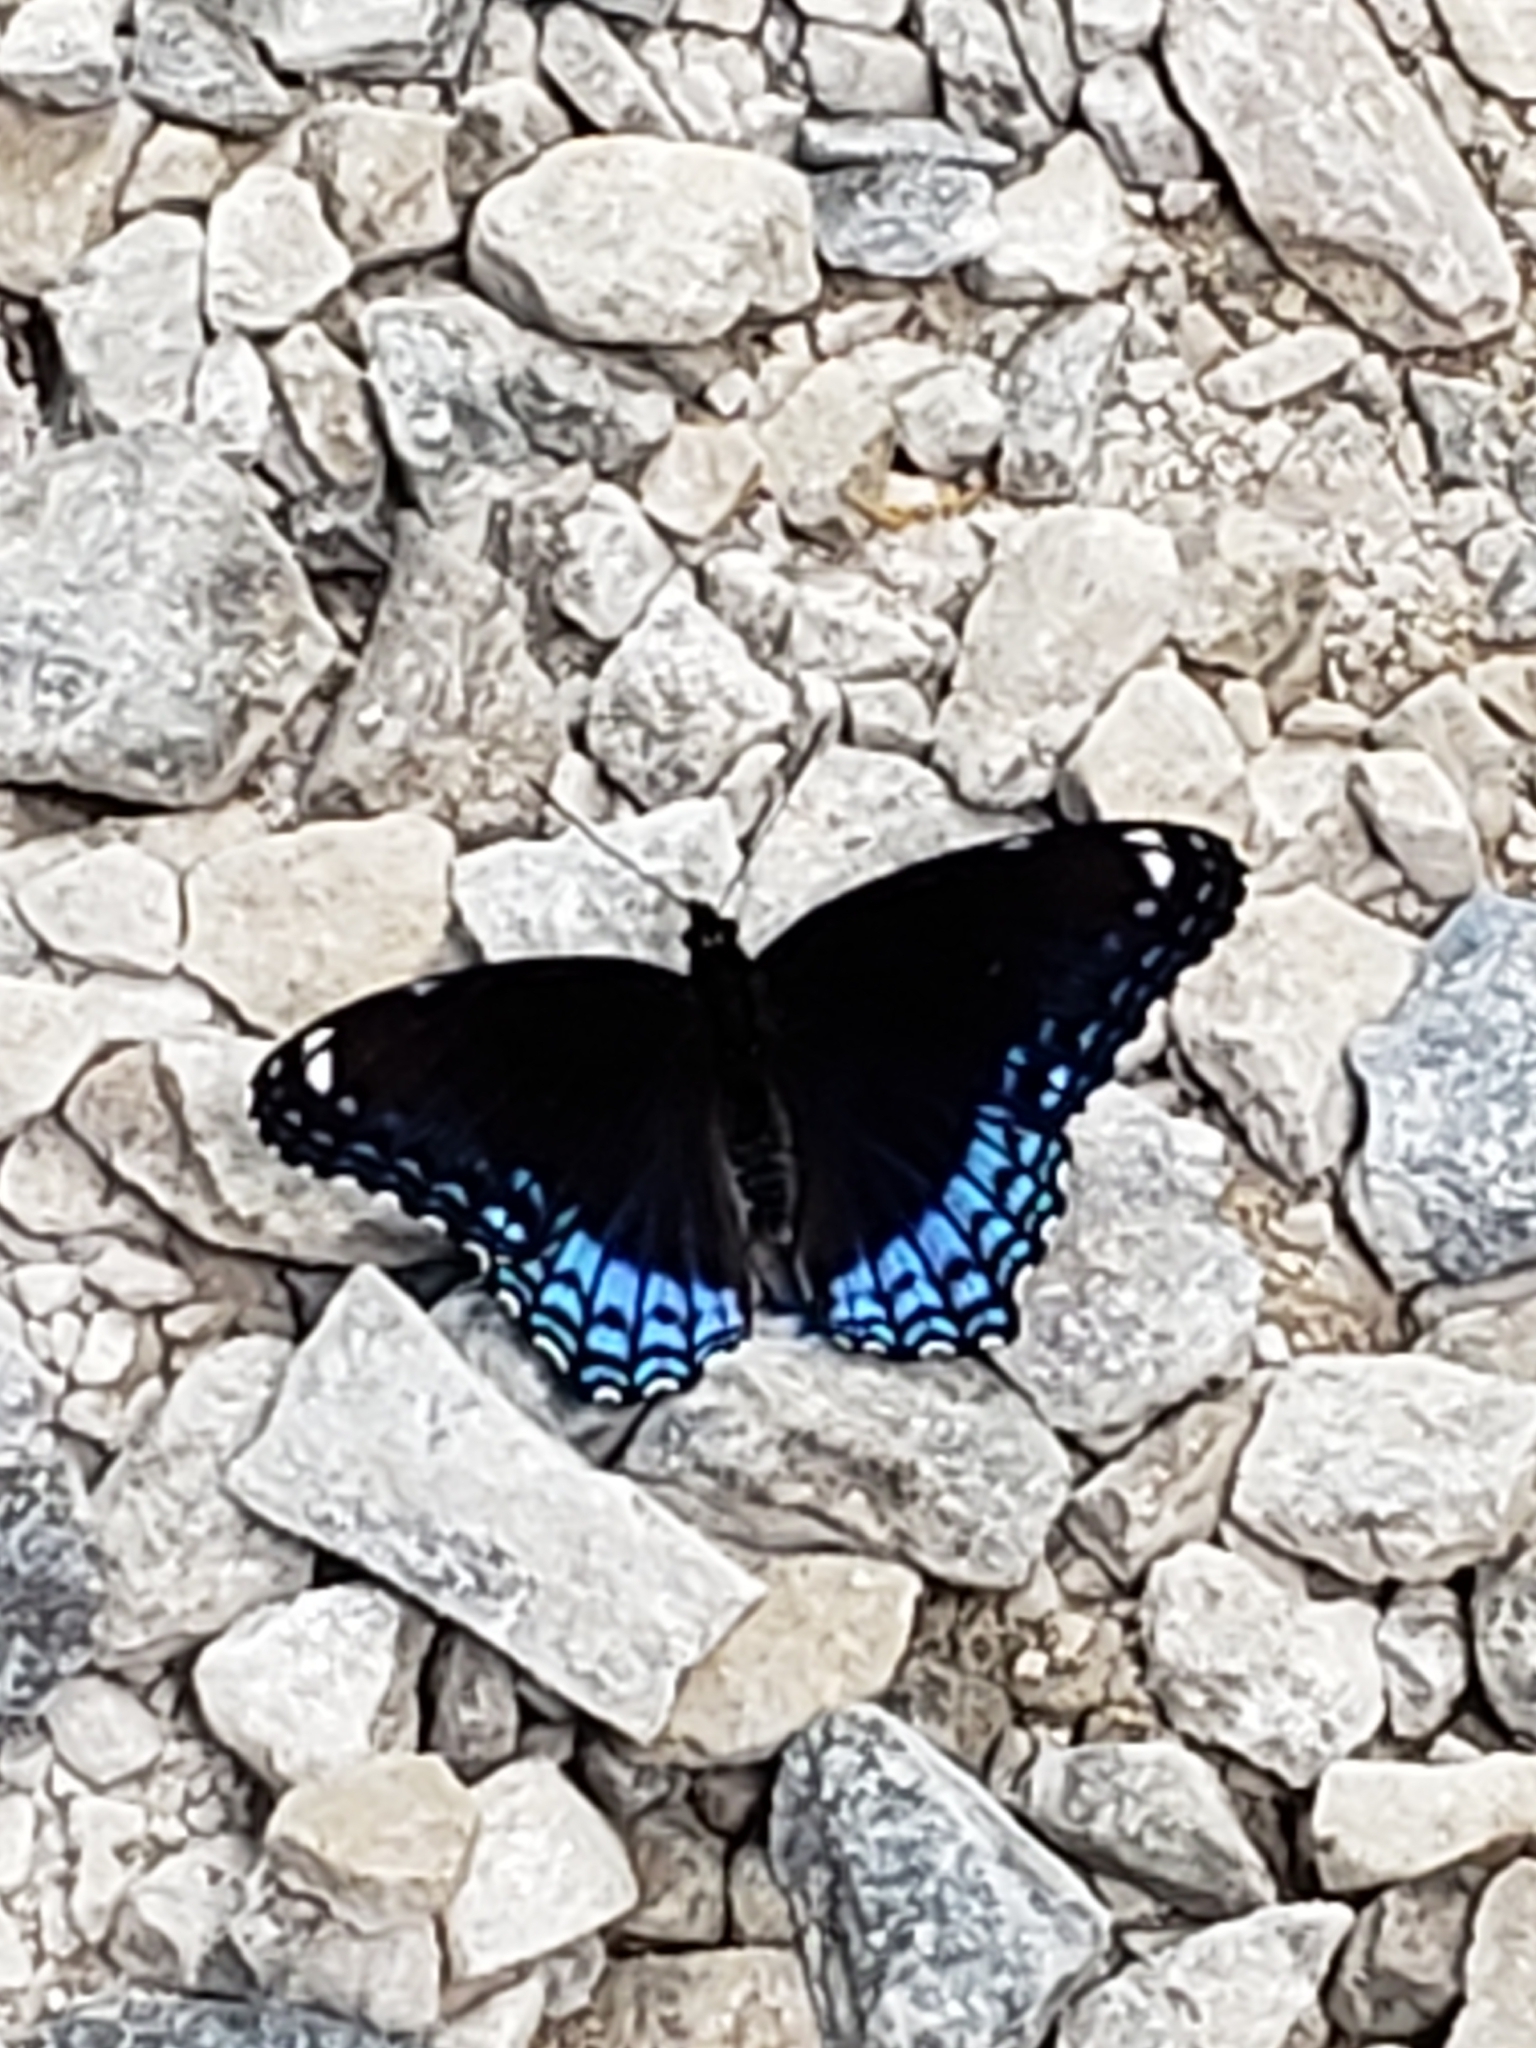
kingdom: Animalia
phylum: Arthropoda
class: Insecta
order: Lepidoptera
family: Nymphalidae
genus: Limenitis
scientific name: Limenitis astyanax
